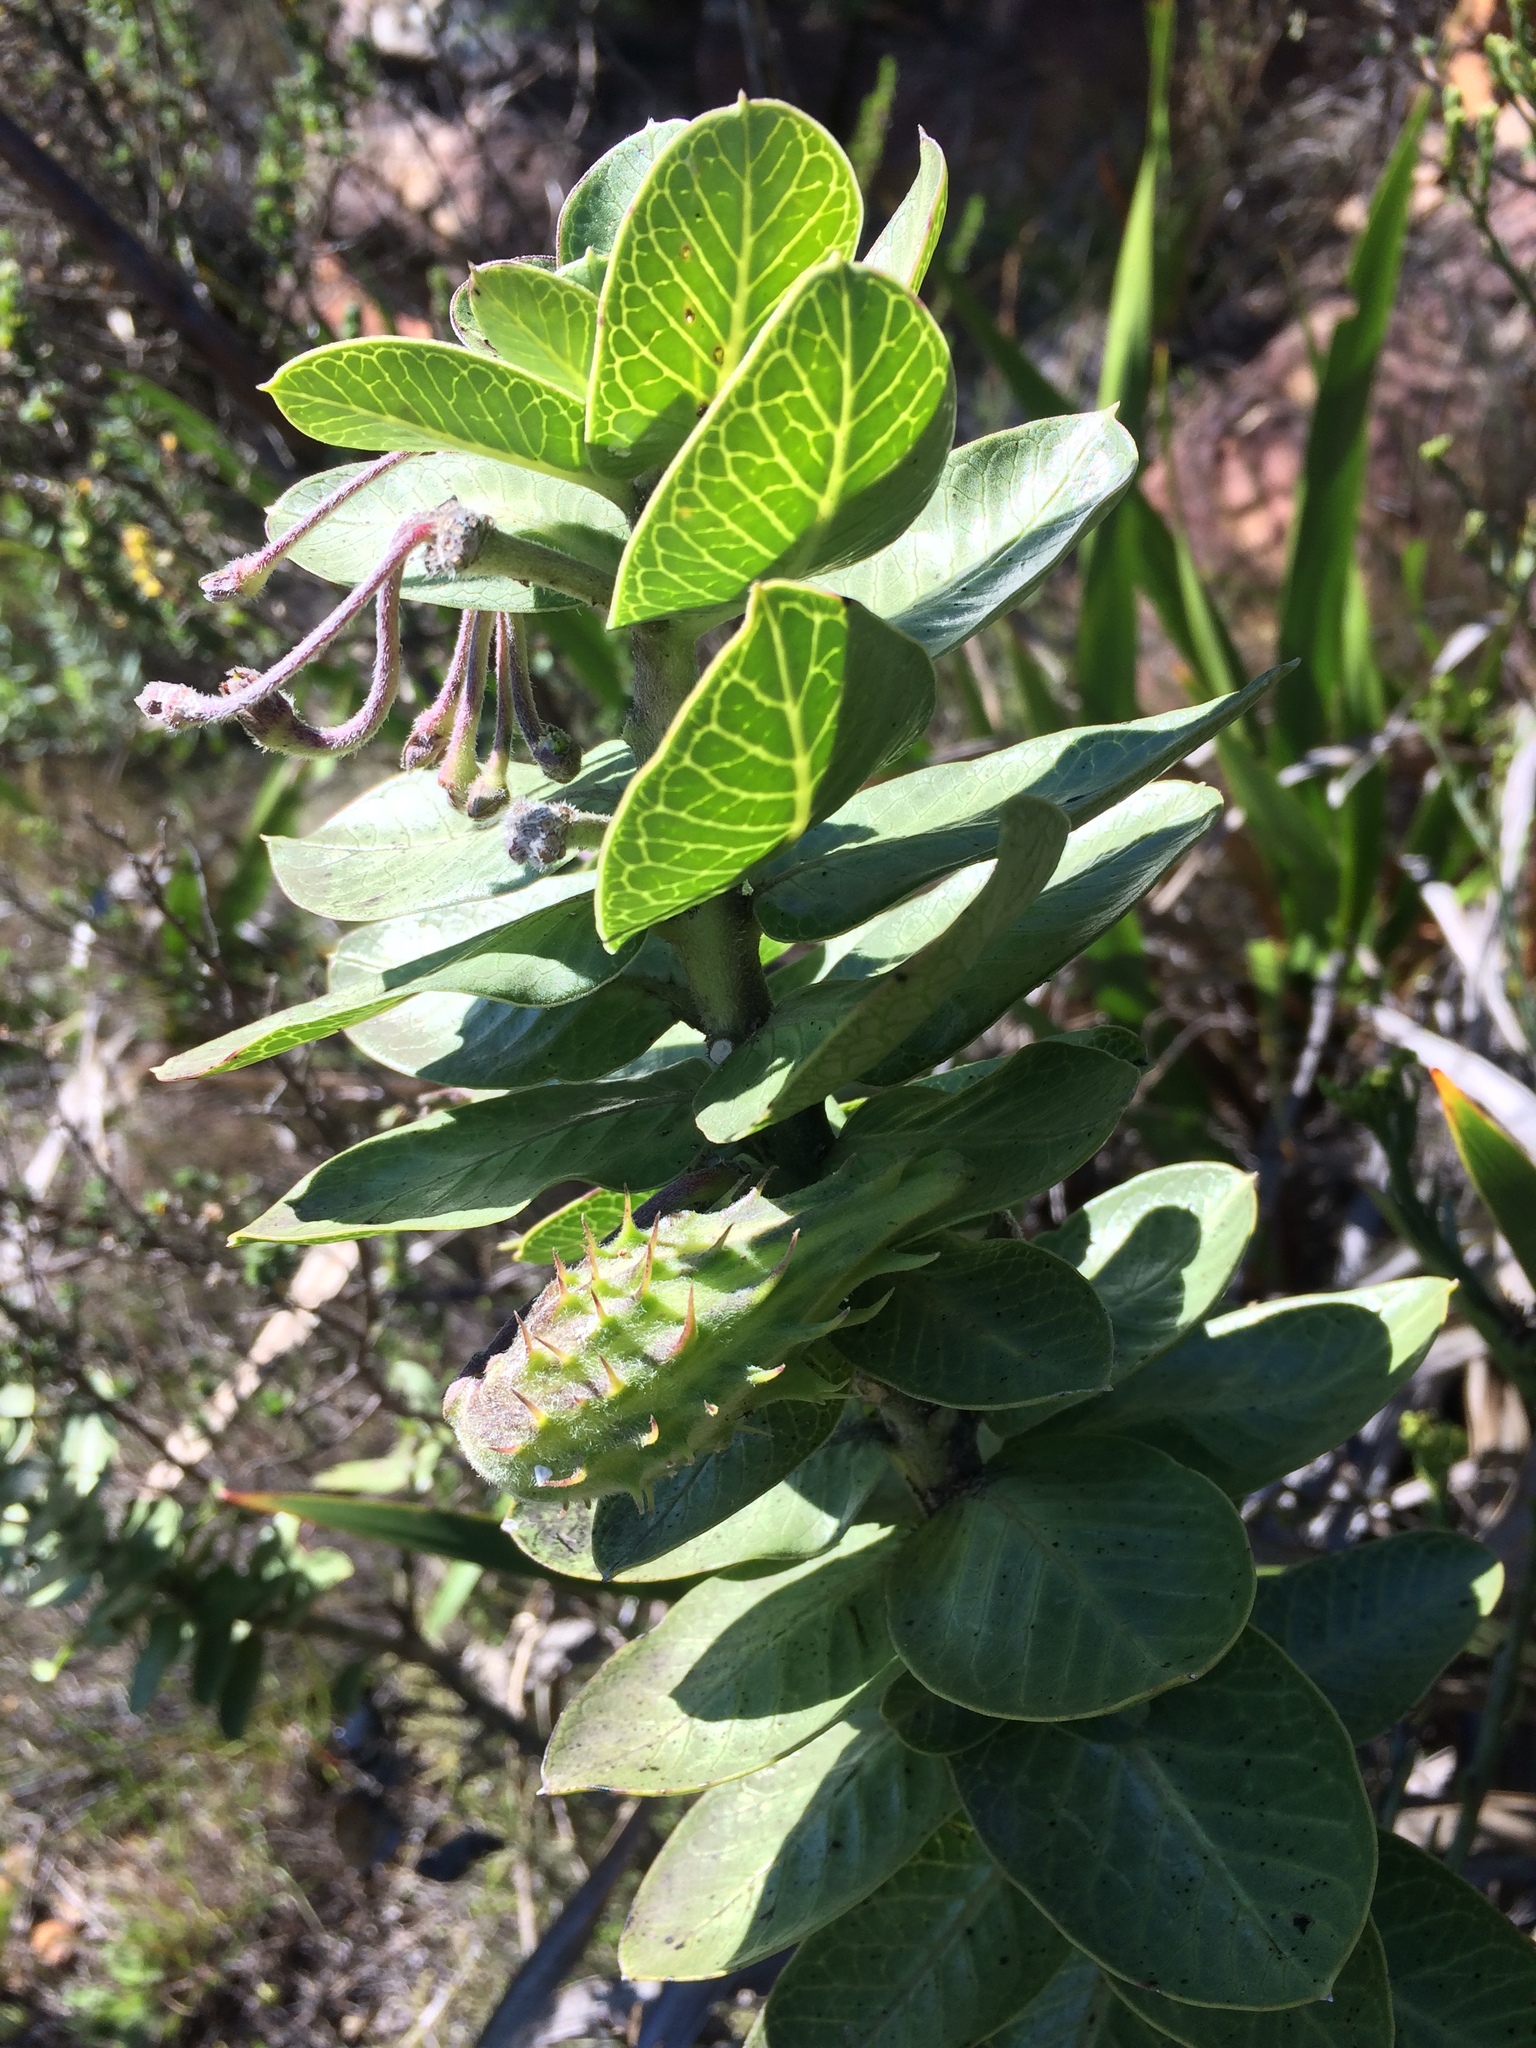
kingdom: Plantae
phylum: Tracheophyta
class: Magnoliopsida
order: Gentianales
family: Apocynaceae
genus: Gomphocarpus
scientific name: Gomphocarpus cancellatus
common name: Wild cotton
